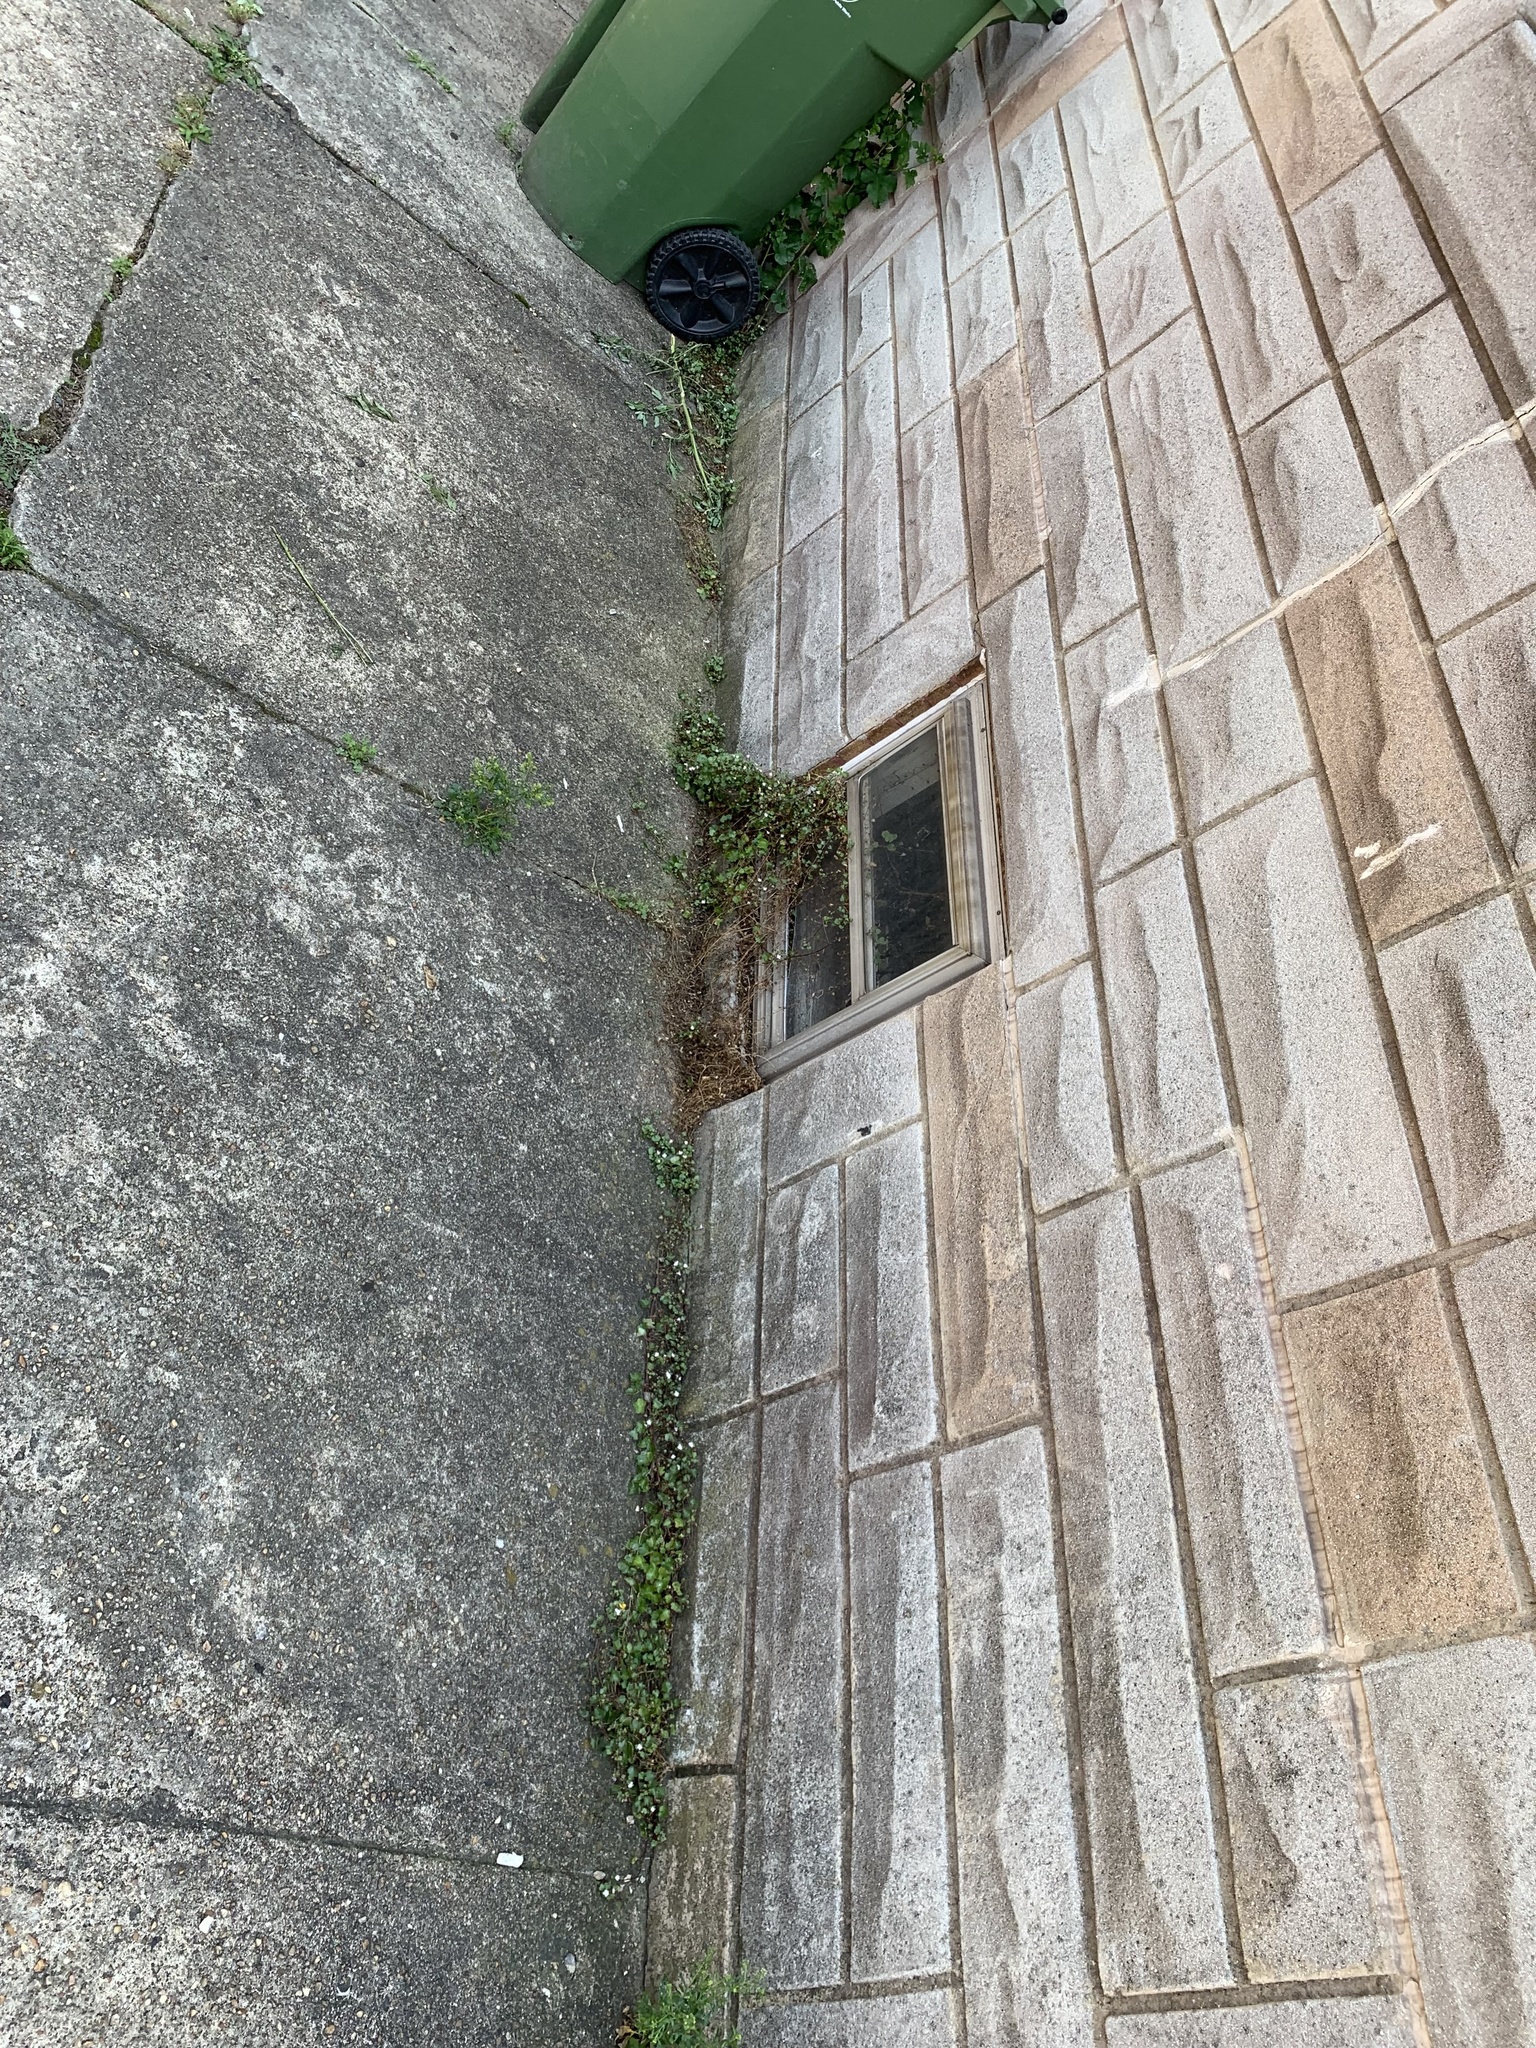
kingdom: Plantae
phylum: Tracheophyta
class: Magnoliopsida
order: Lamiales
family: Plantaginaceae
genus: Cymbalaria
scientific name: Cymbalaria muralis
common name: Ivy-leaved toadflax
